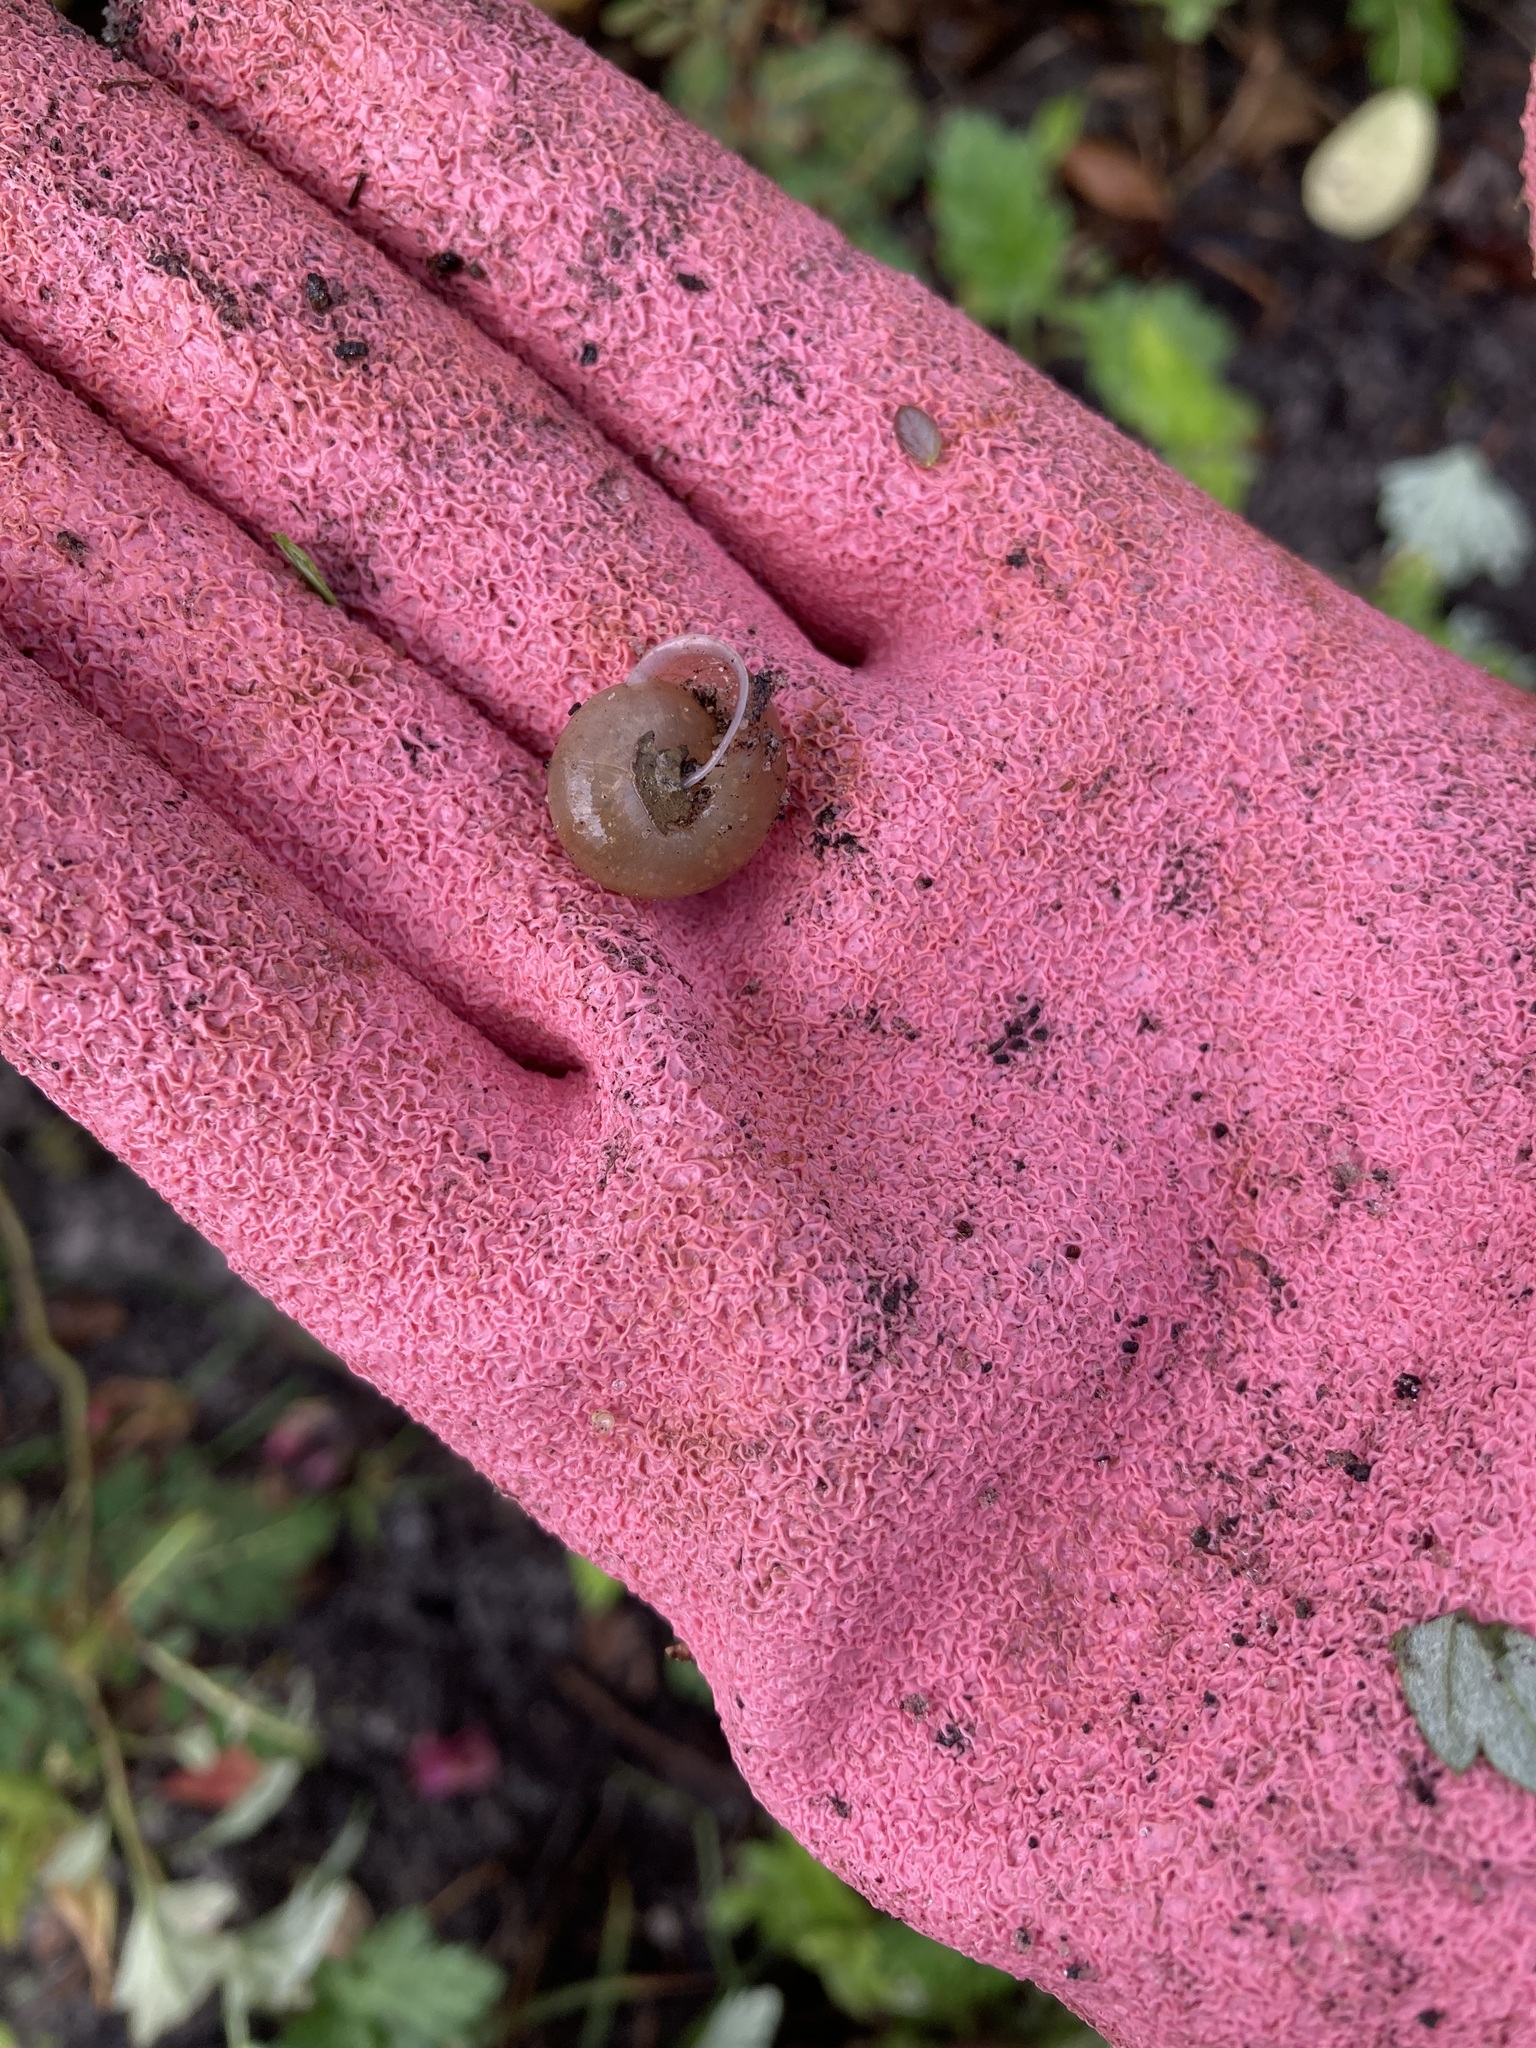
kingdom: Animalia
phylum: Mollusca
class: Gastropoda
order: Stylommatophora
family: Camaenidae
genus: Bradybaena
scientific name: Bradybaena similaris
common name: Asian trampsnail
